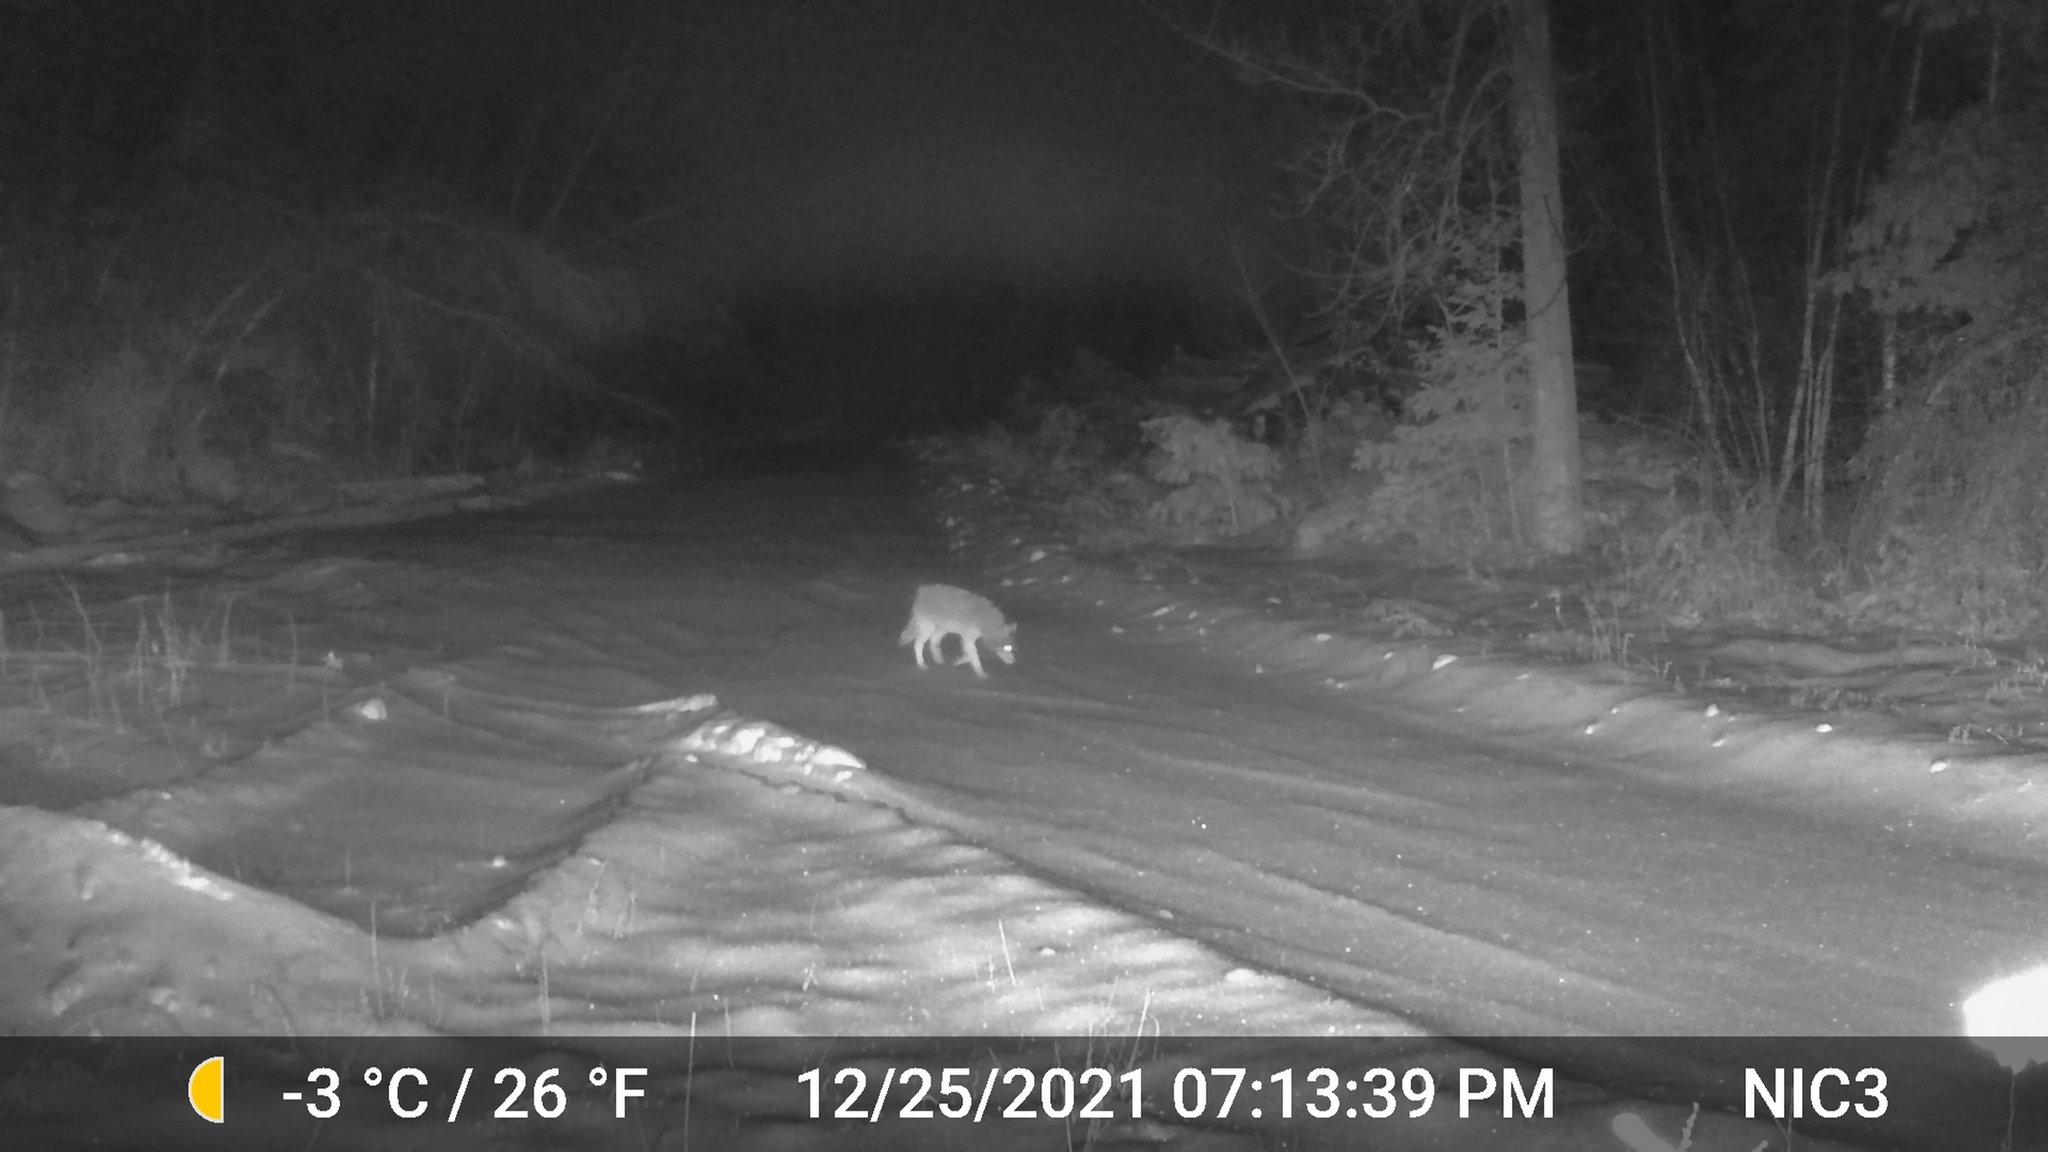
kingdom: Animalia
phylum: Chordata
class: Mammalia
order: Carnivora
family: Canidae
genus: Canis
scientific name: Canis latrans
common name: Coyote
